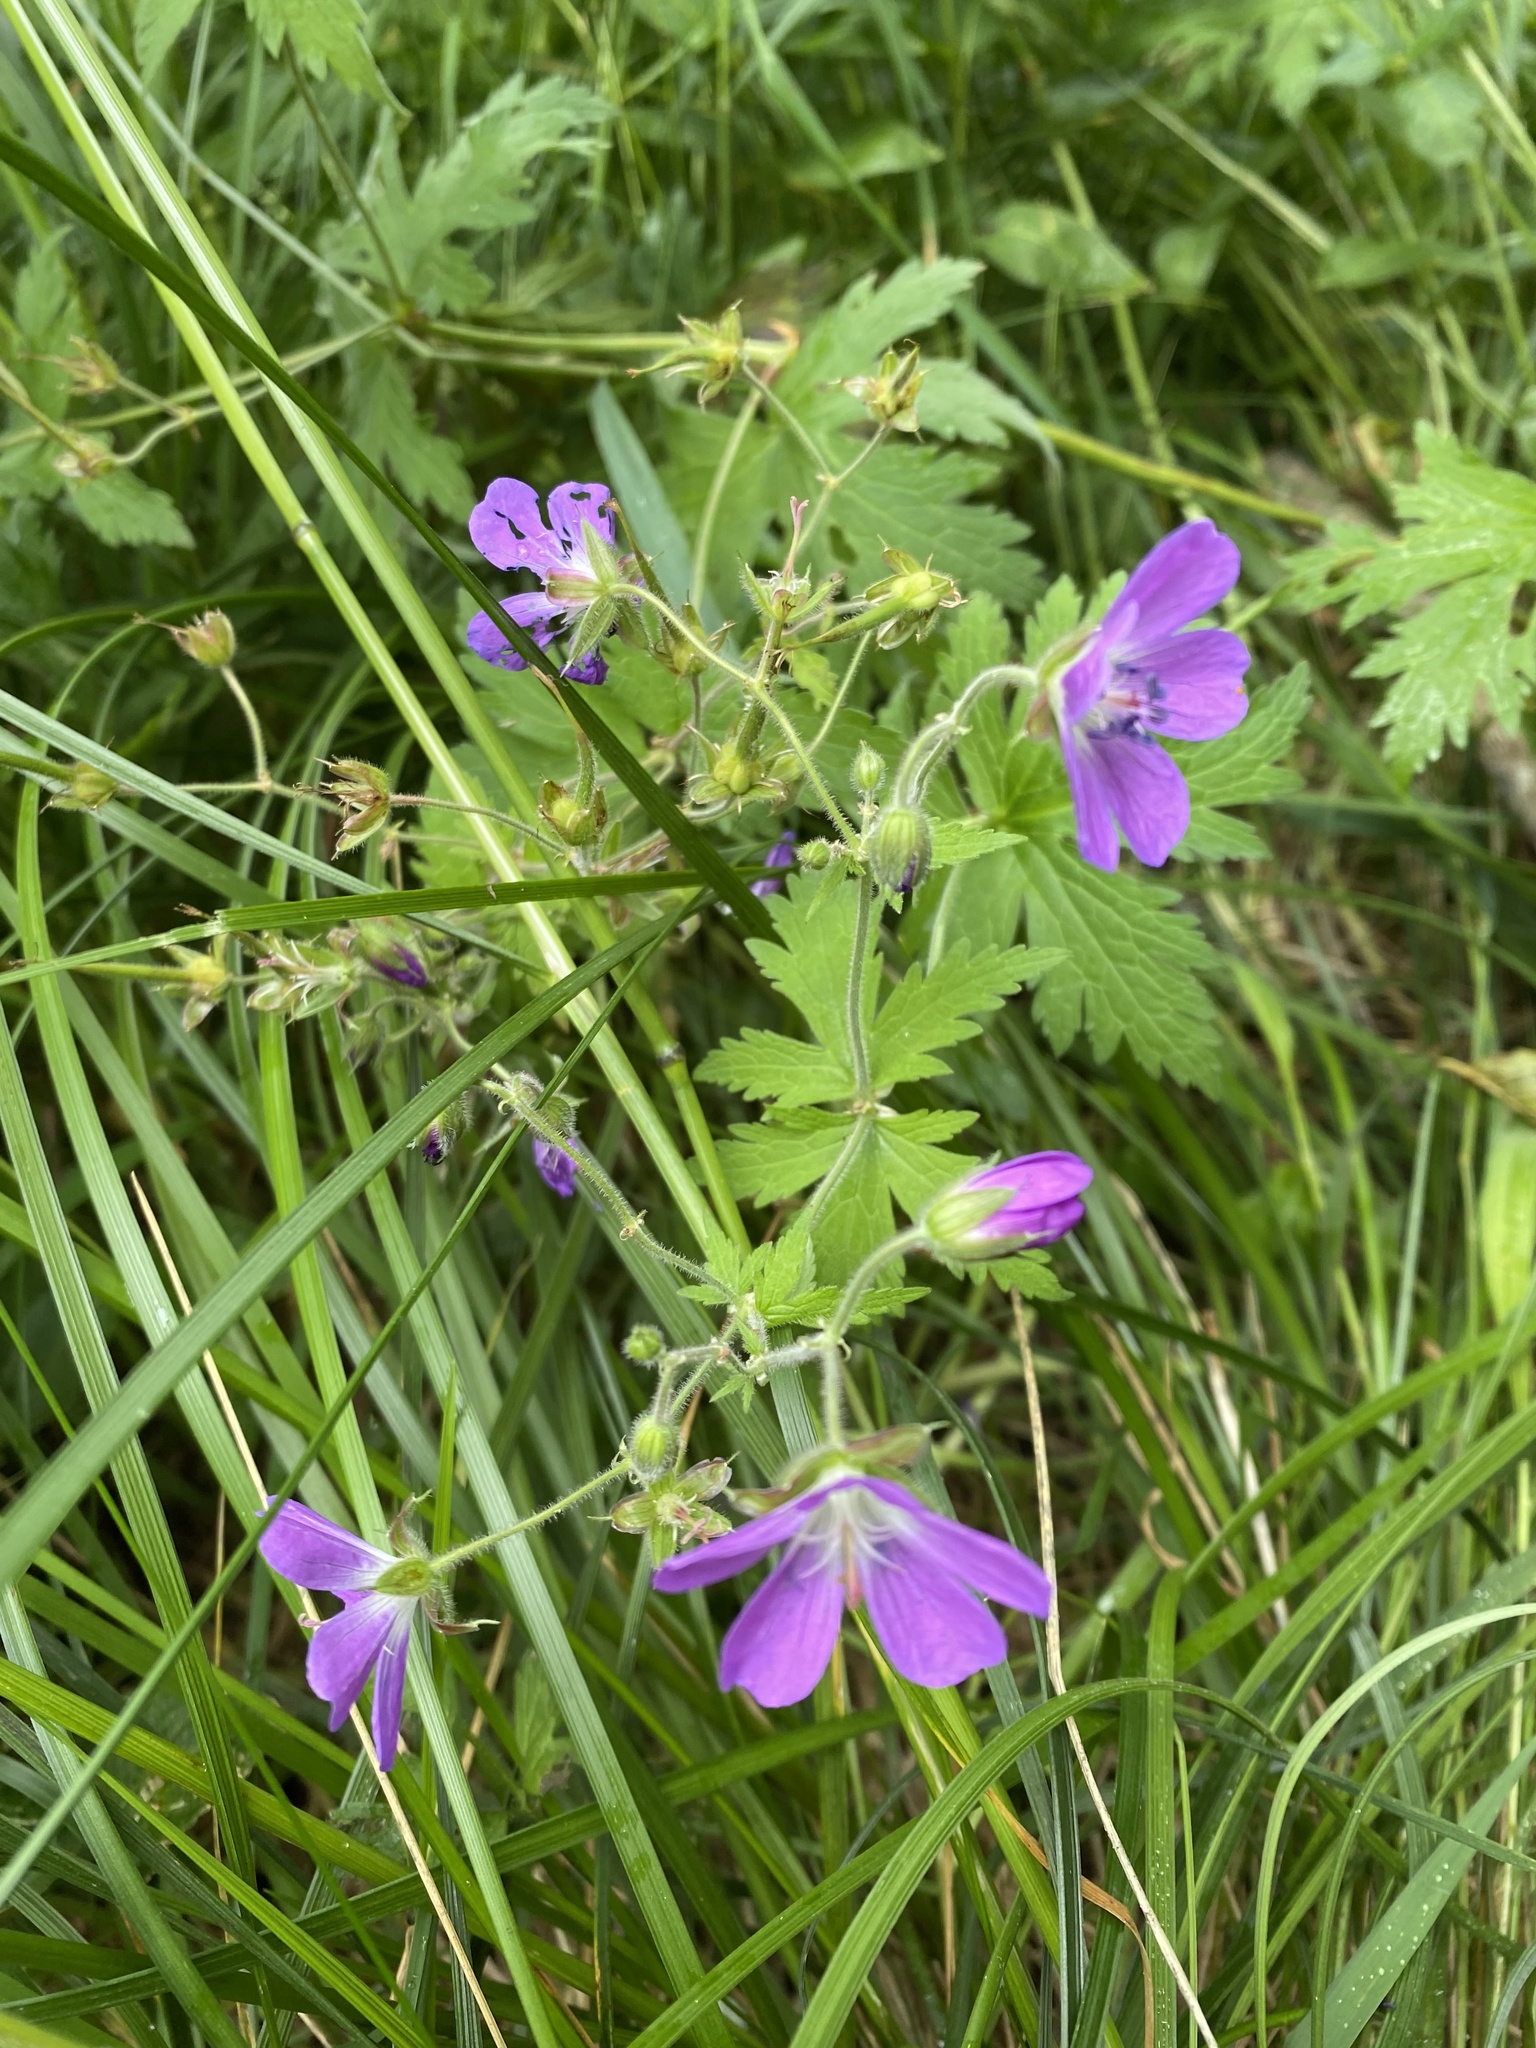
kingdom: Plantae
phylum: Tracheophyta
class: Magnoliopsida
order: Geraniales
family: Geraniaceae
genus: Geranium
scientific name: Geranium sylvaticum
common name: Wood crane's-bill
